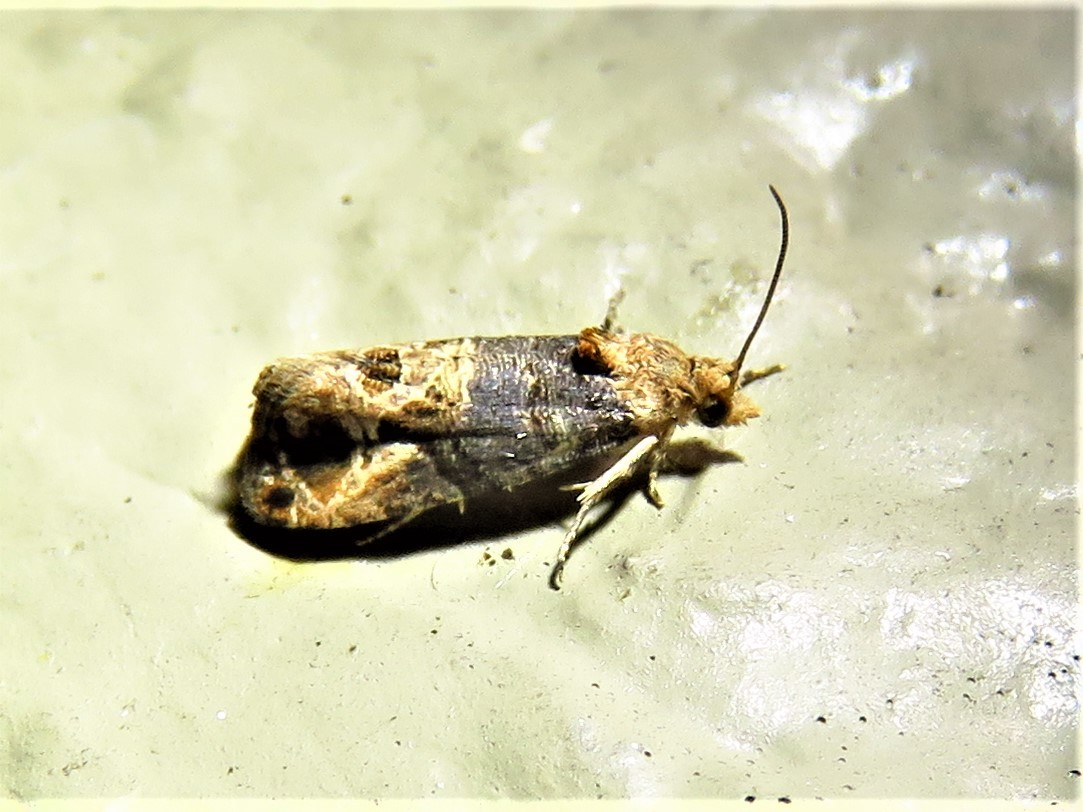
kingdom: Animalia
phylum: Arthropoda
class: Insecta
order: Lepidoptera
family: Tortricidae
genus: Paralobesia
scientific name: Paralobesia viteana
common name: Grape berry moth
